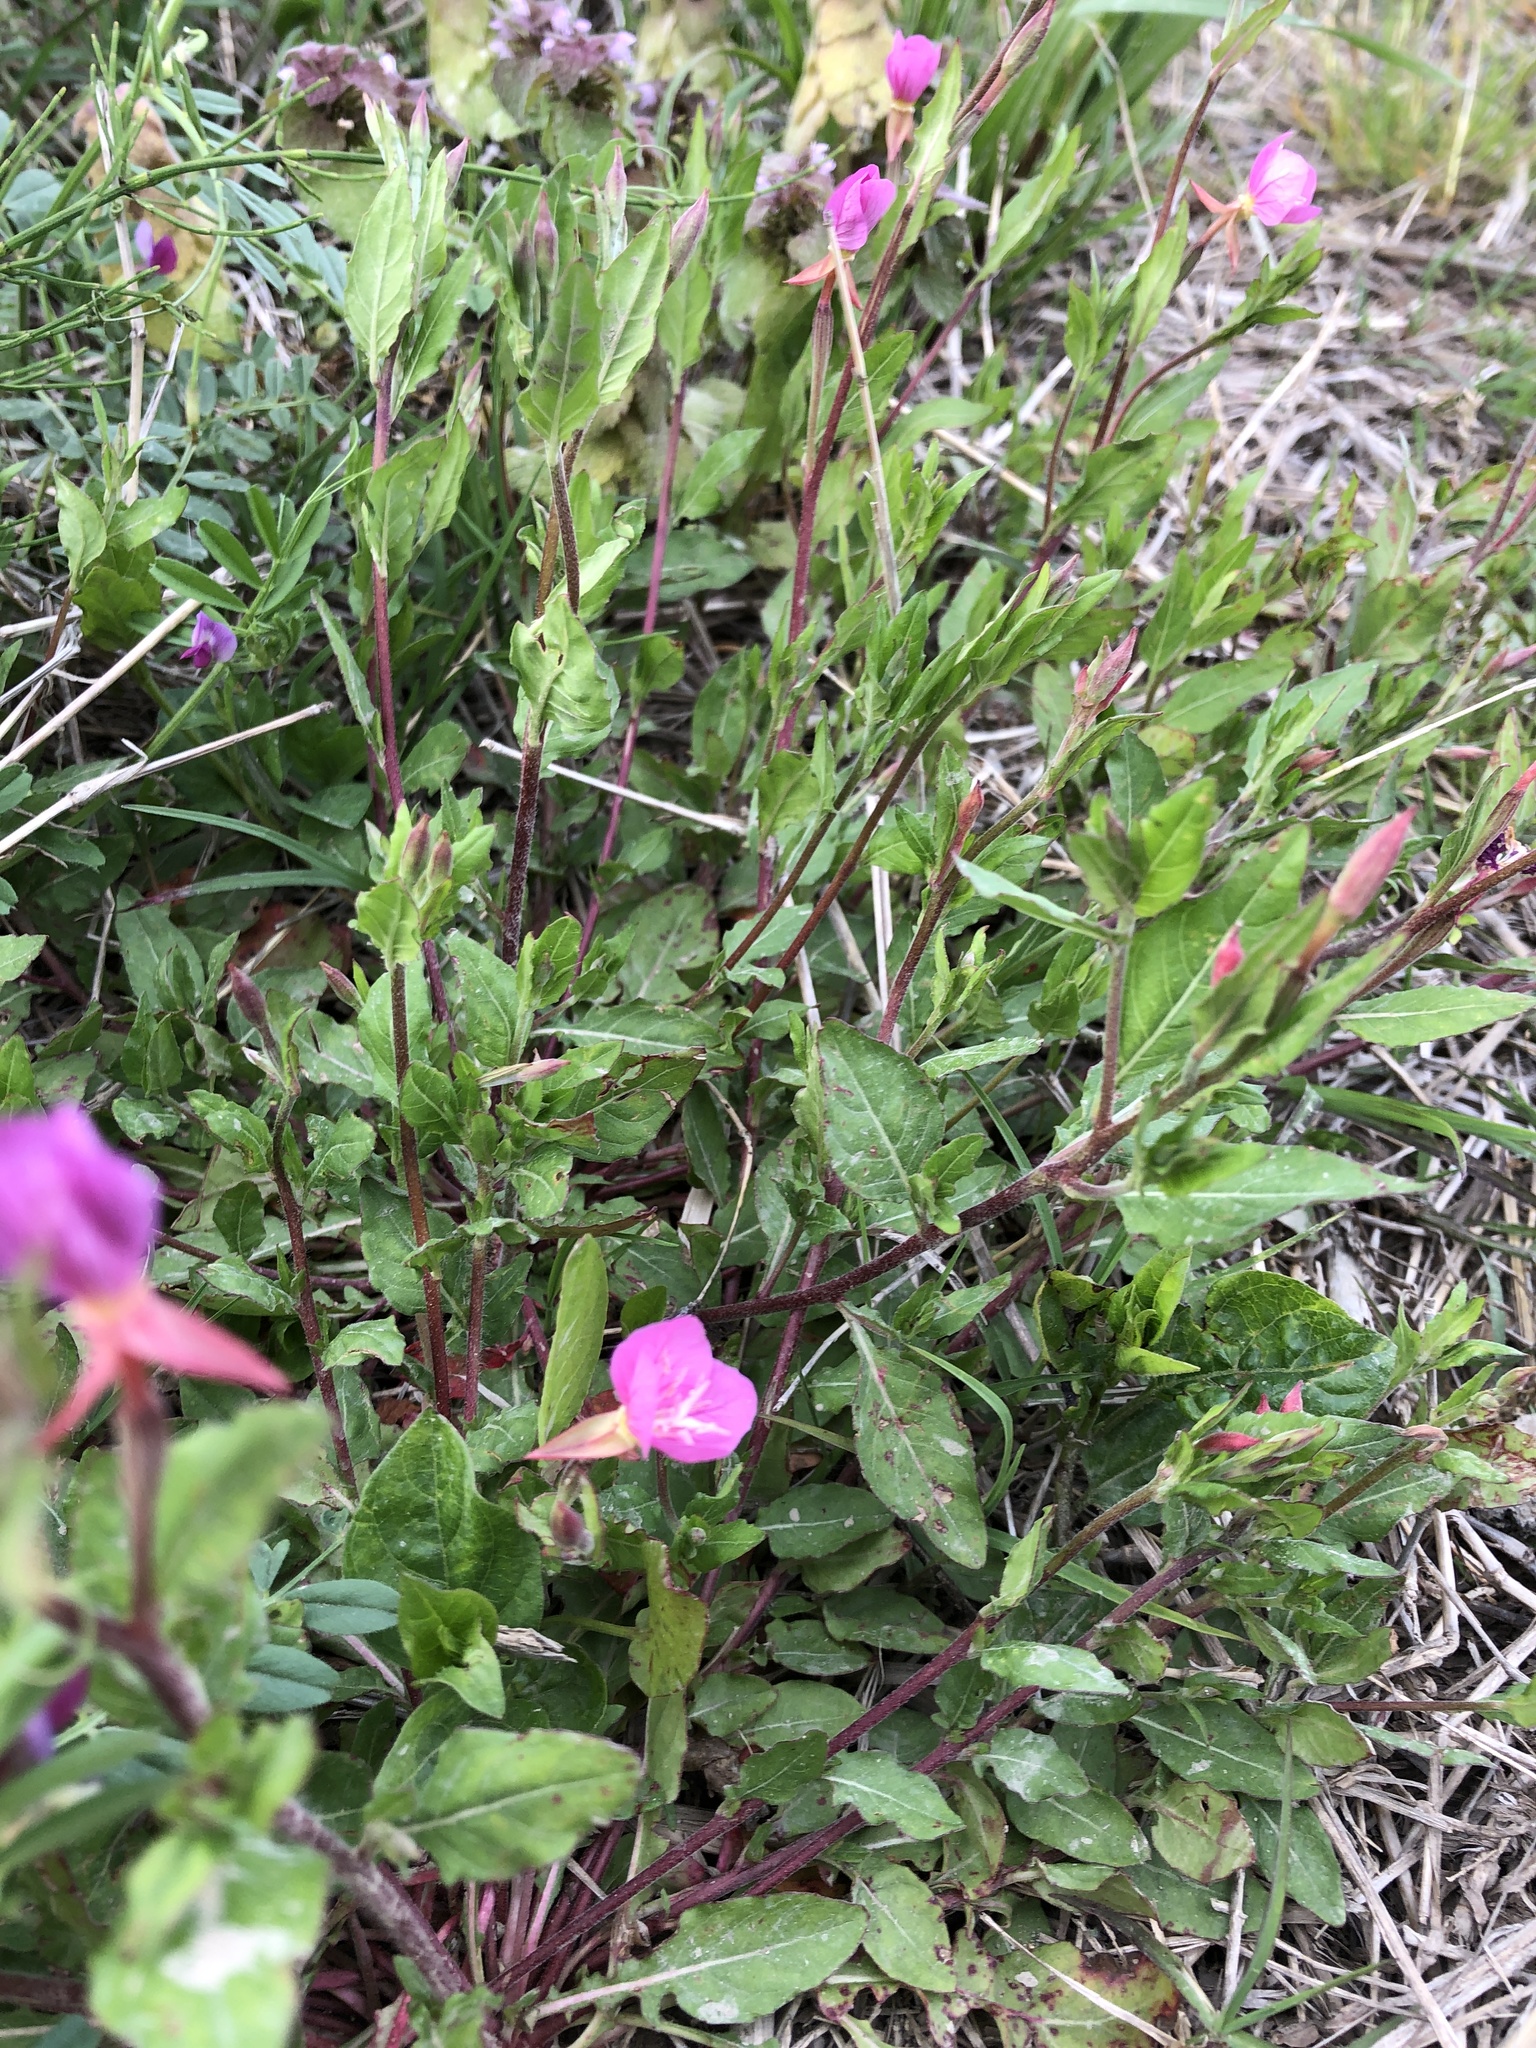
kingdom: Plantae
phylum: Tracheophyta
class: Magnoliopsida
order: Myrtales
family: Onagraceae
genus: Oenothera
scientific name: Oenothera rosea
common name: Rosy evening-primrose
